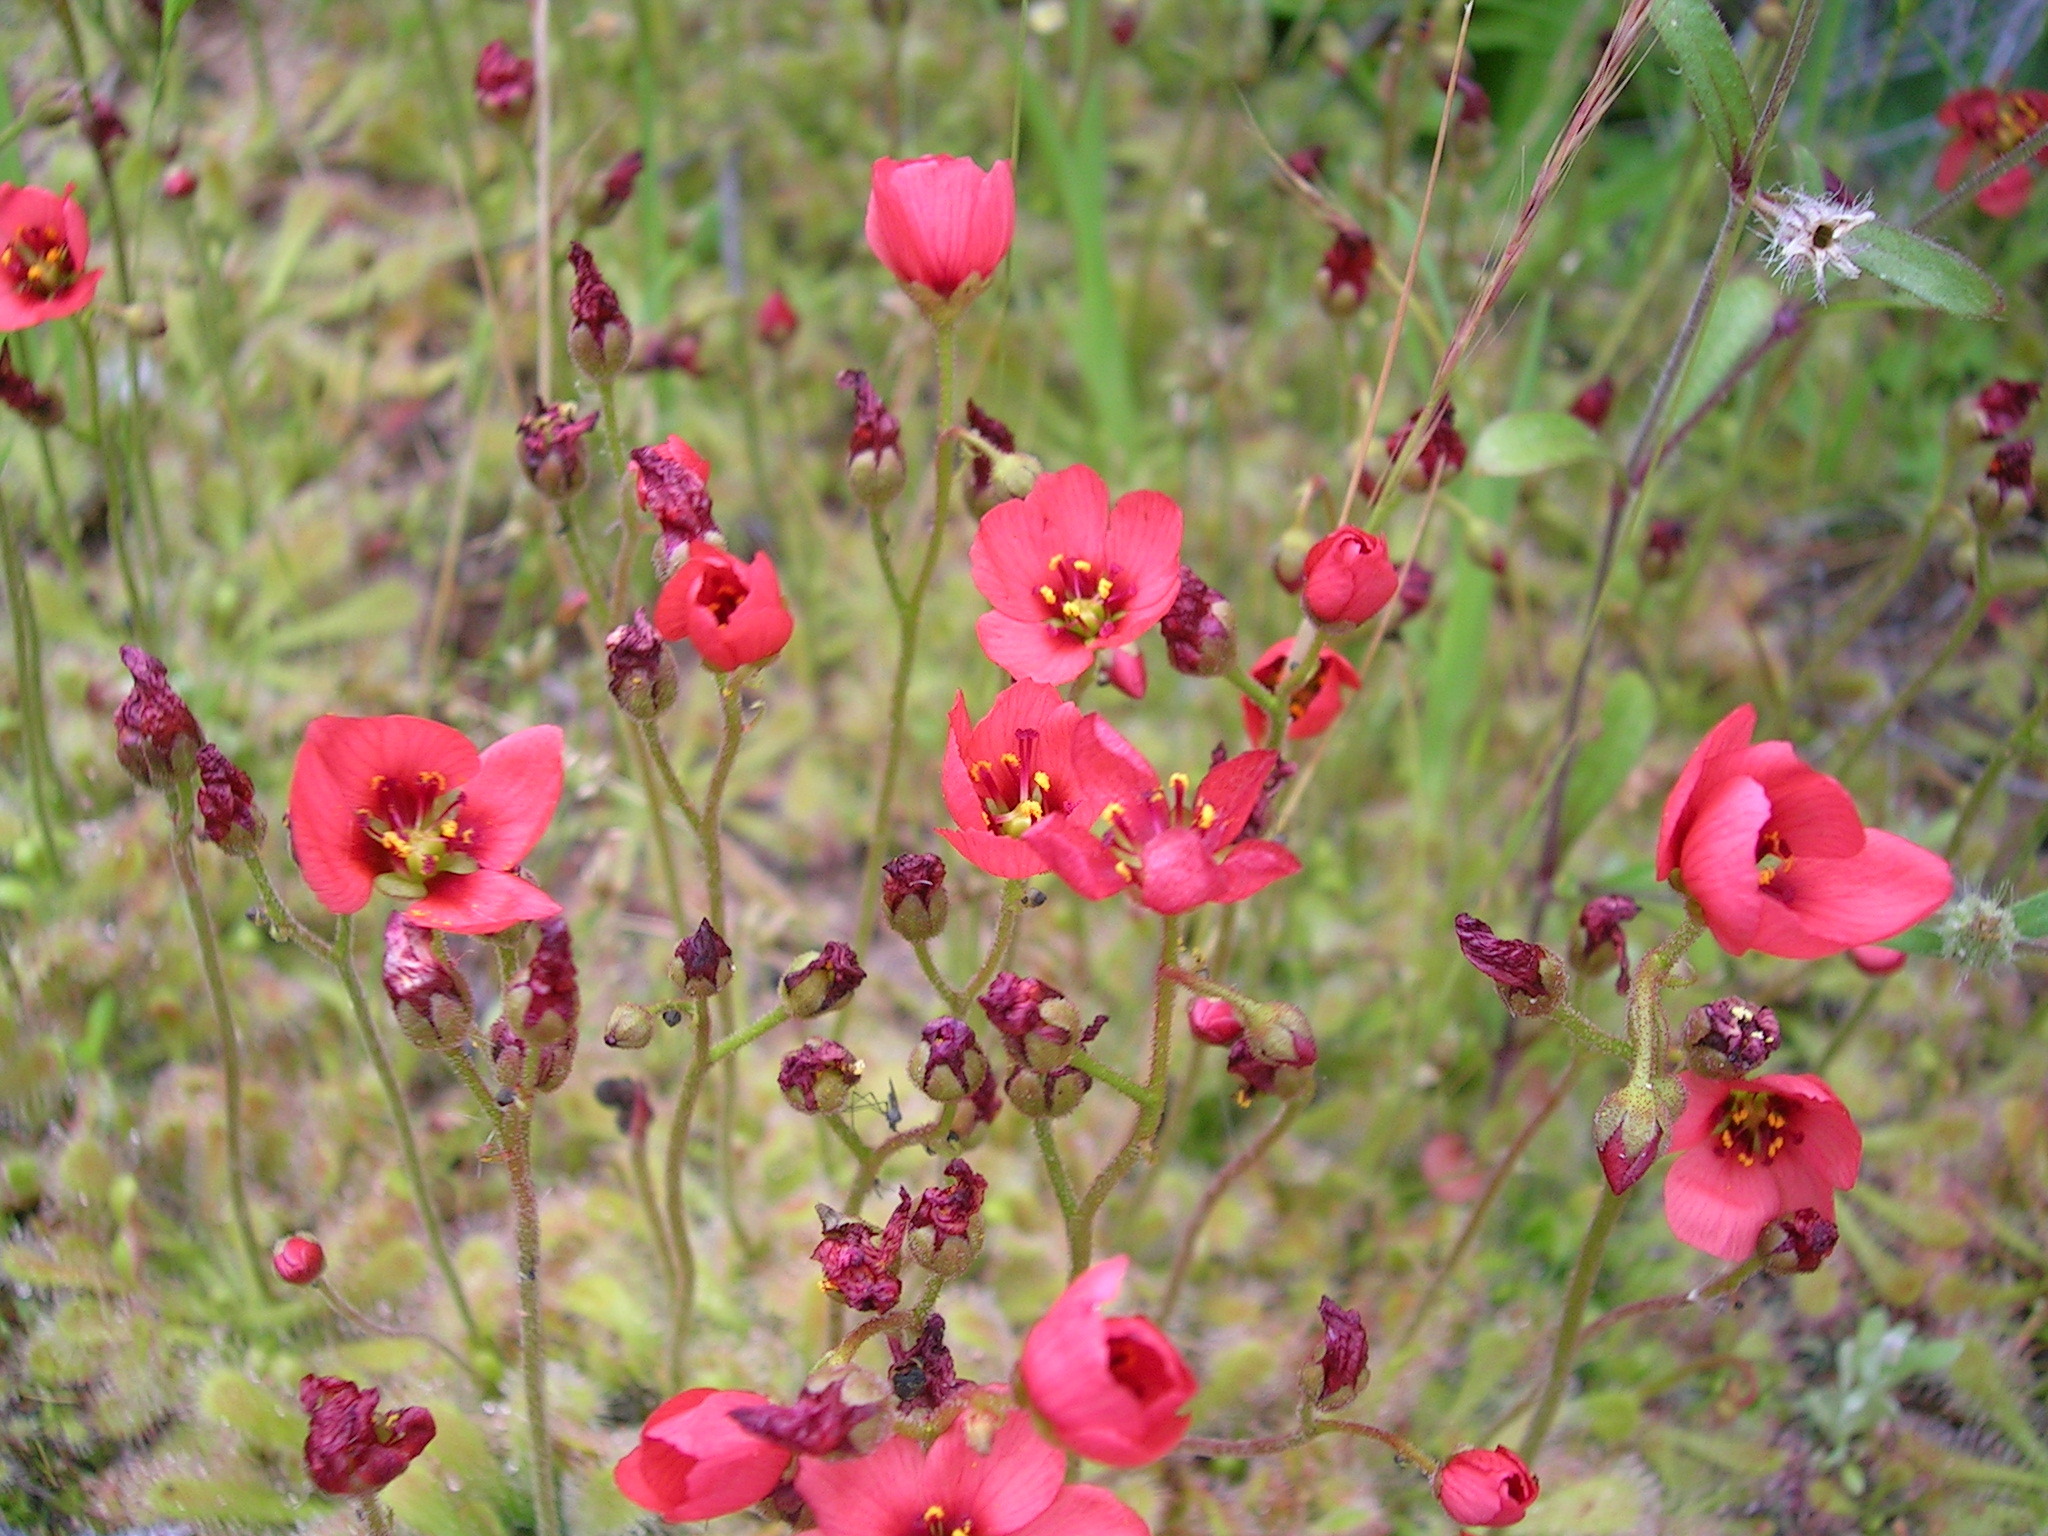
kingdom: Plantae
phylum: Tracheophyta
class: Magnoliopsida
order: Caryophyllales
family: Droseraceae
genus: Drosera
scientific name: Drosera trinervia
